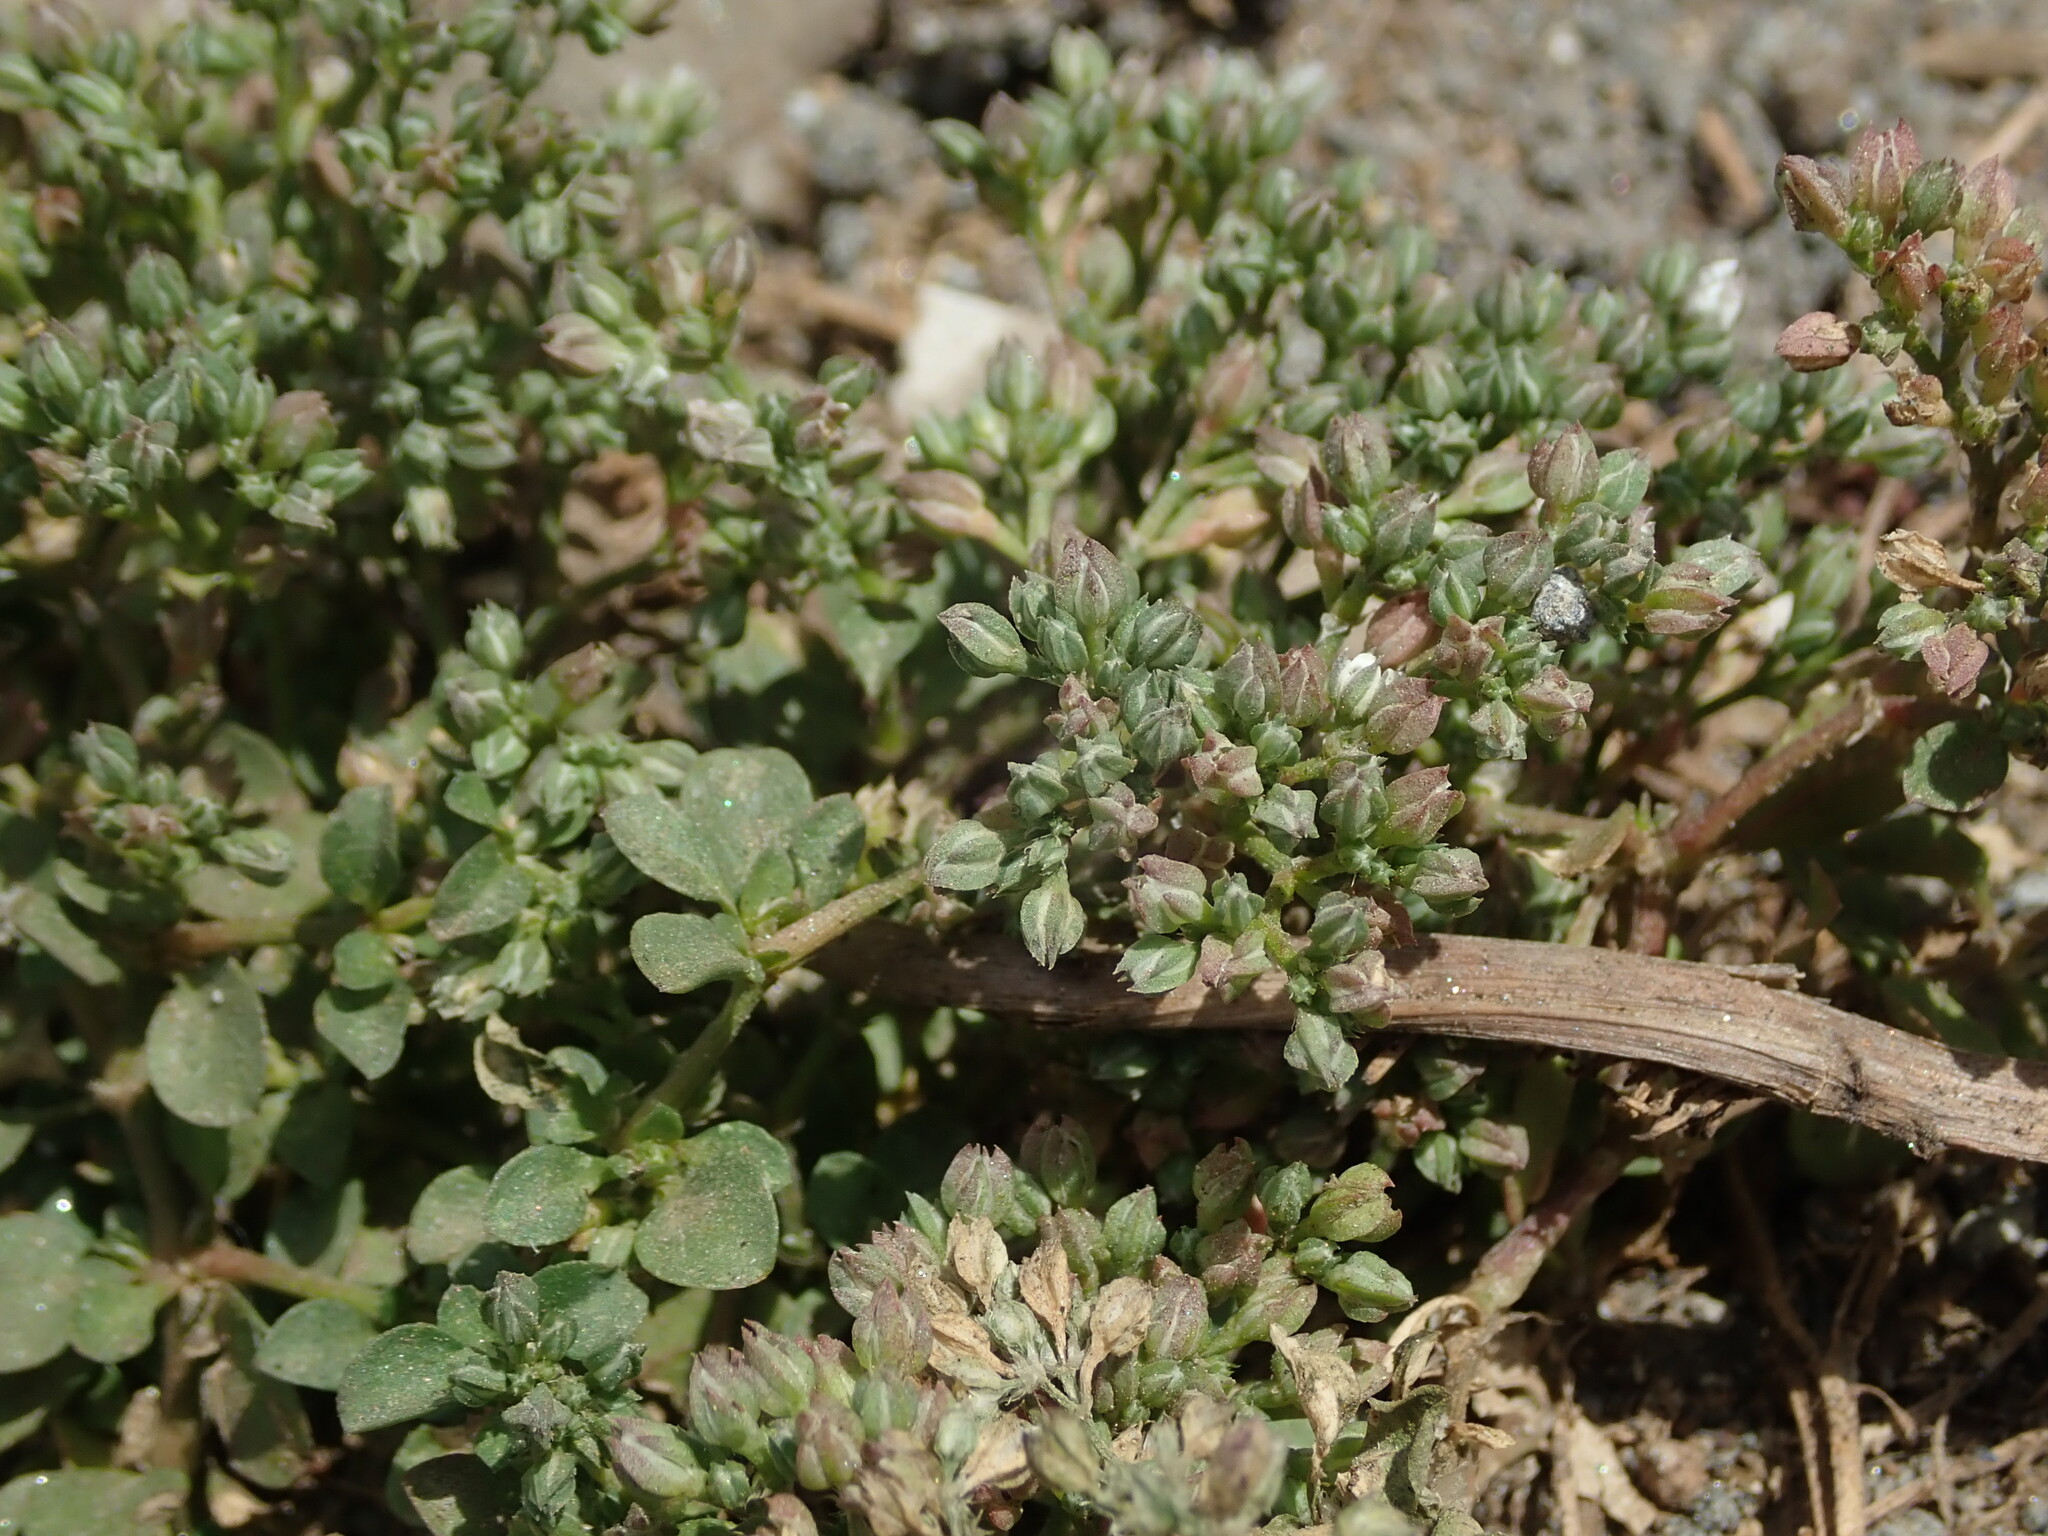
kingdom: Plantae
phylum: Tracheophyta
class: Magnoliopsida
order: Caryophyllales
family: Caryophyllaceae
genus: Polycarpon
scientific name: Polycarpon tetraphyllum
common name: Four-leaved all-seed
